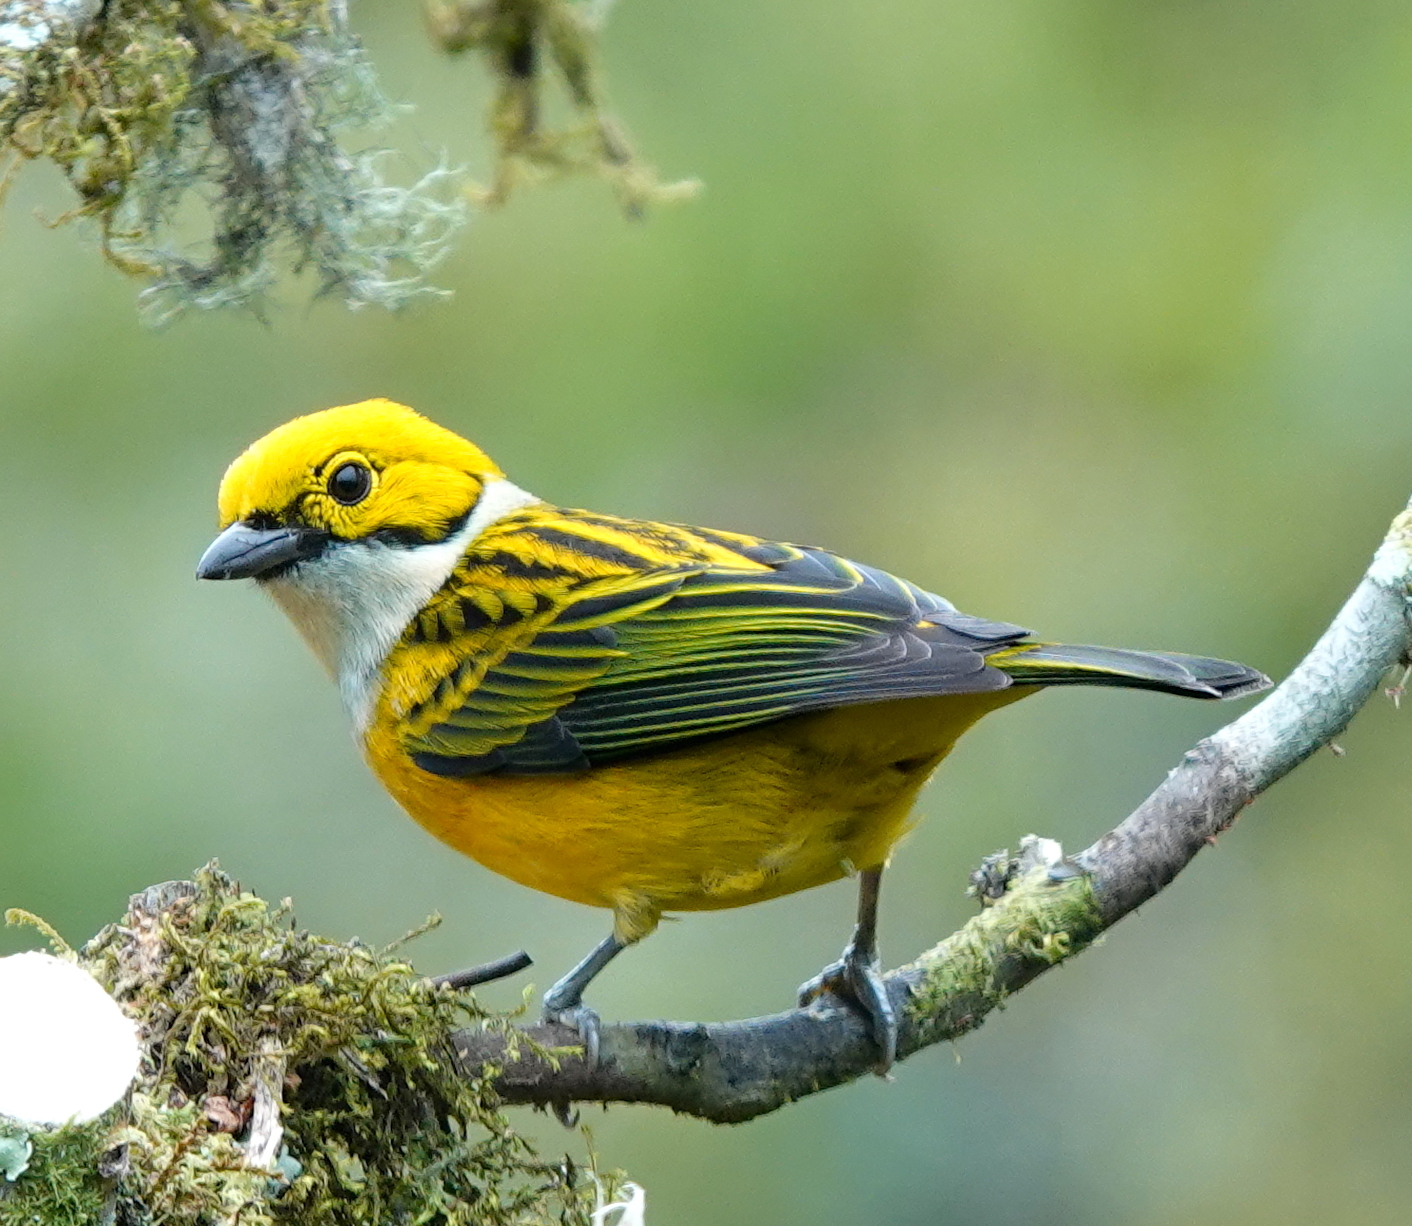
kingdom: Animalia
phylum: Chordata
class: Aves
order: Passeriformes
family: Thraupidae
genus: Tangara
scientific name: Tangara icterocephala
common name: Silver-throated tanager
